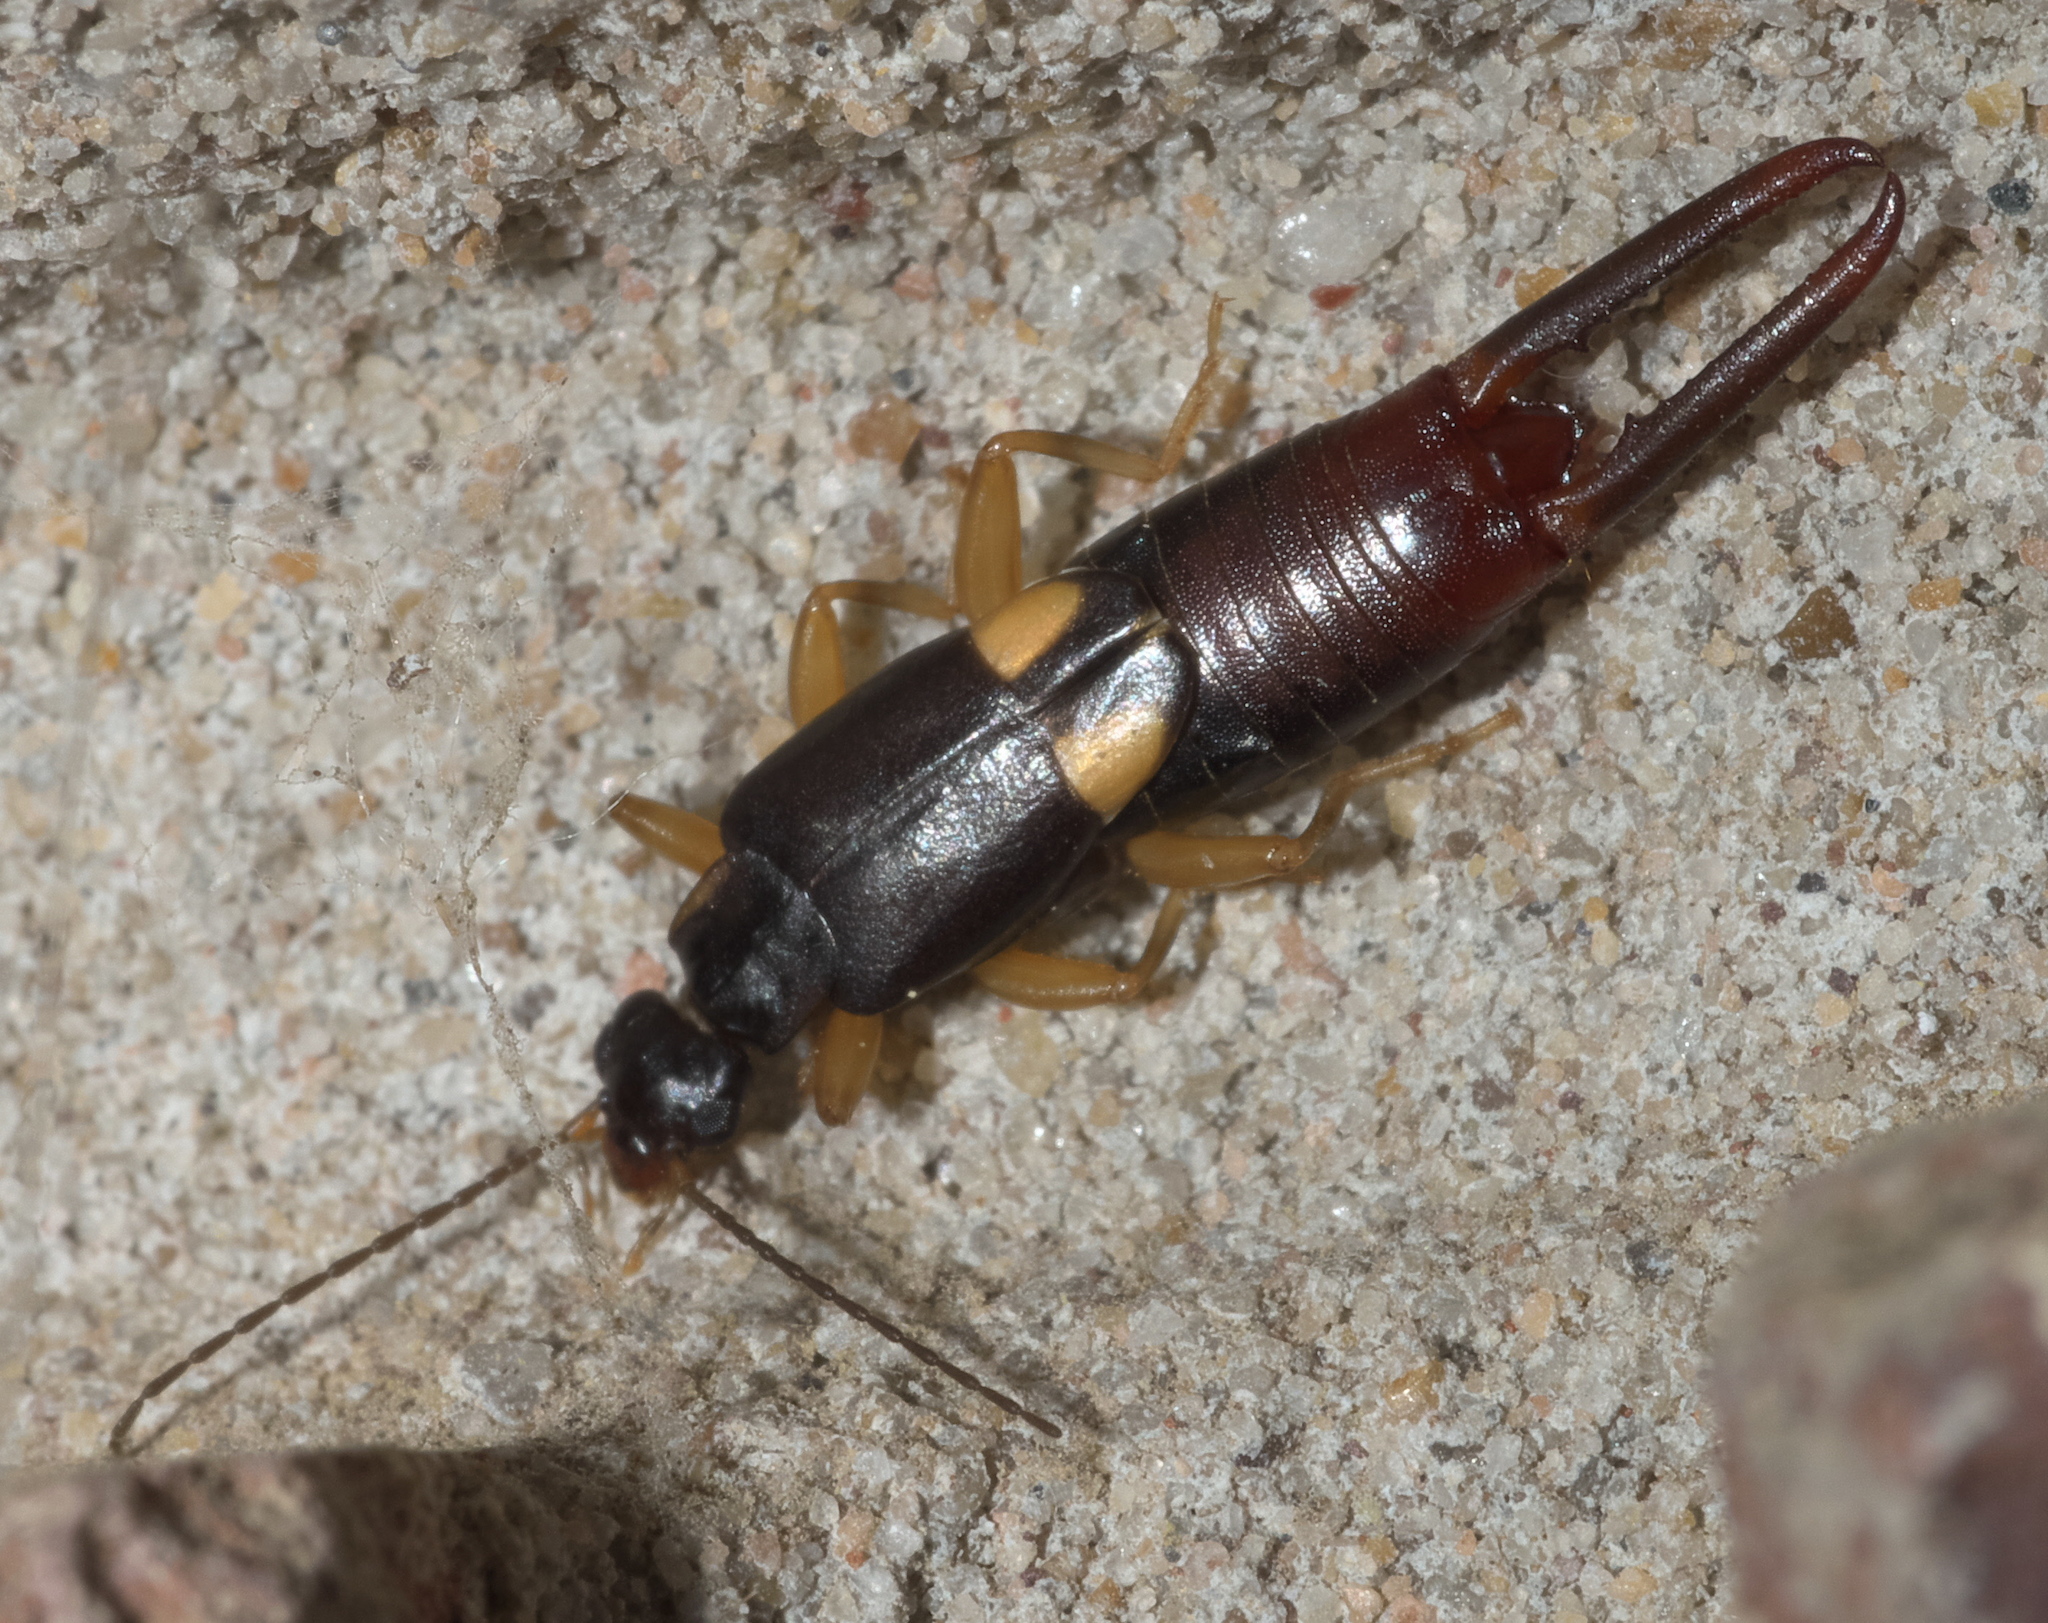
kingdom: Animalia
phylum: Arthropoda
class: Insecta
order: Dermaptera
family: Spongiphoridae
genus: Vostox
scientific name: Vostox brunneipennis
